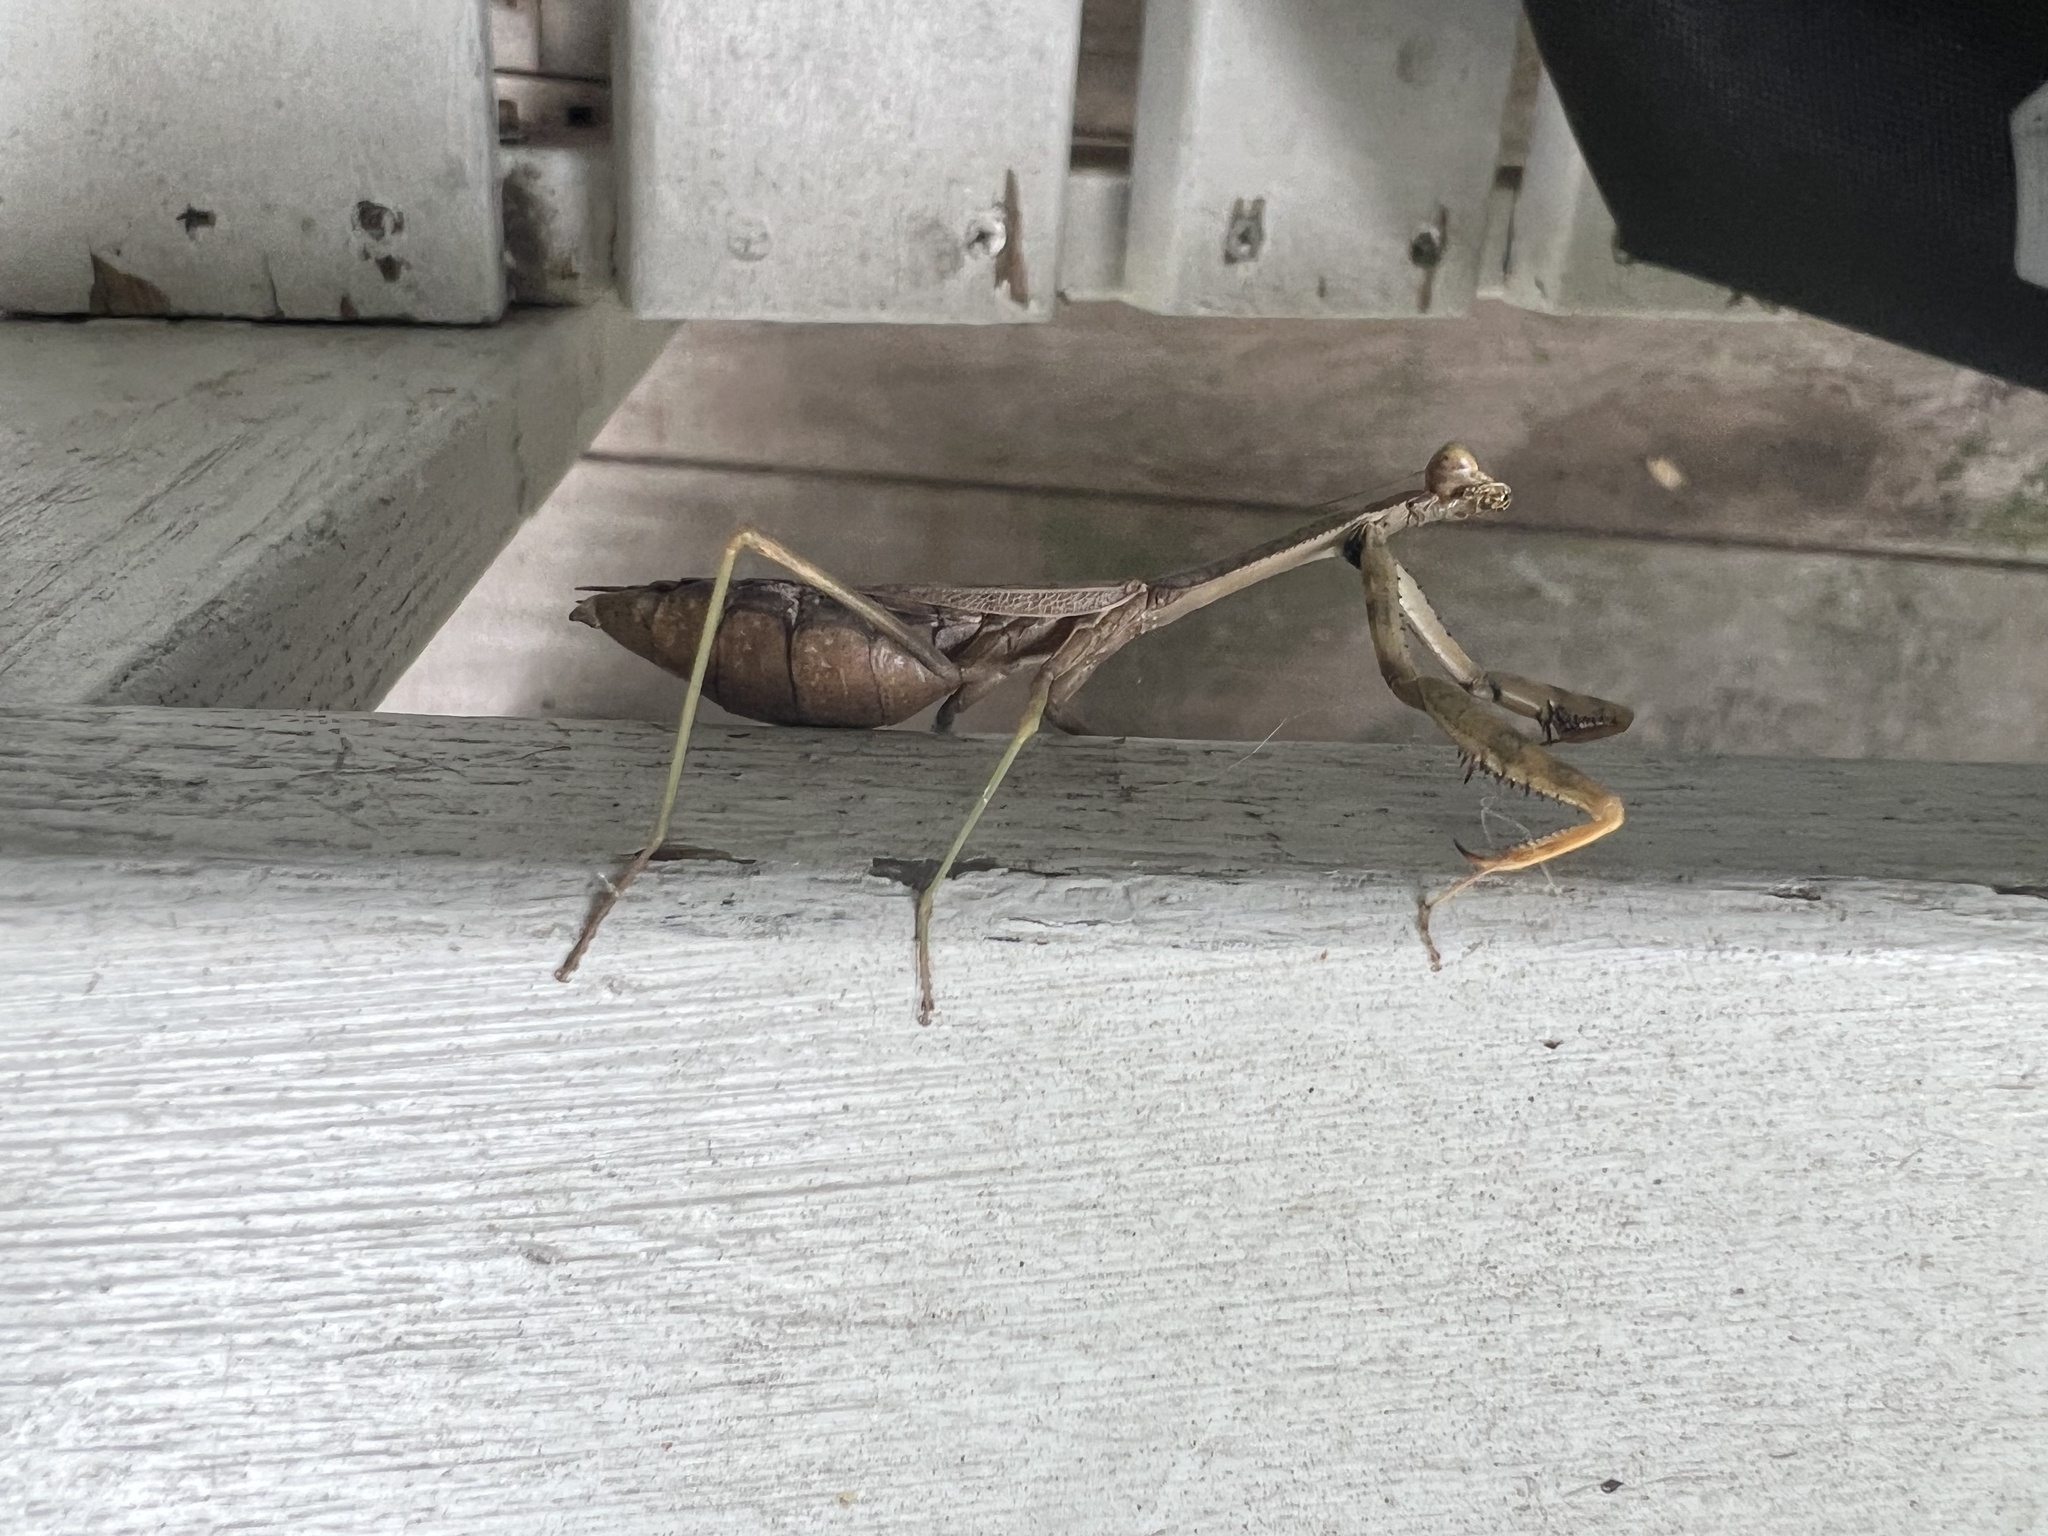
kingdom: Animalia
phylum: Arthropoda
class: Insecta
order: Mantodea
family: Mantidae
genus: Stagmomantis
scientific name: Stagmomantis carolina
